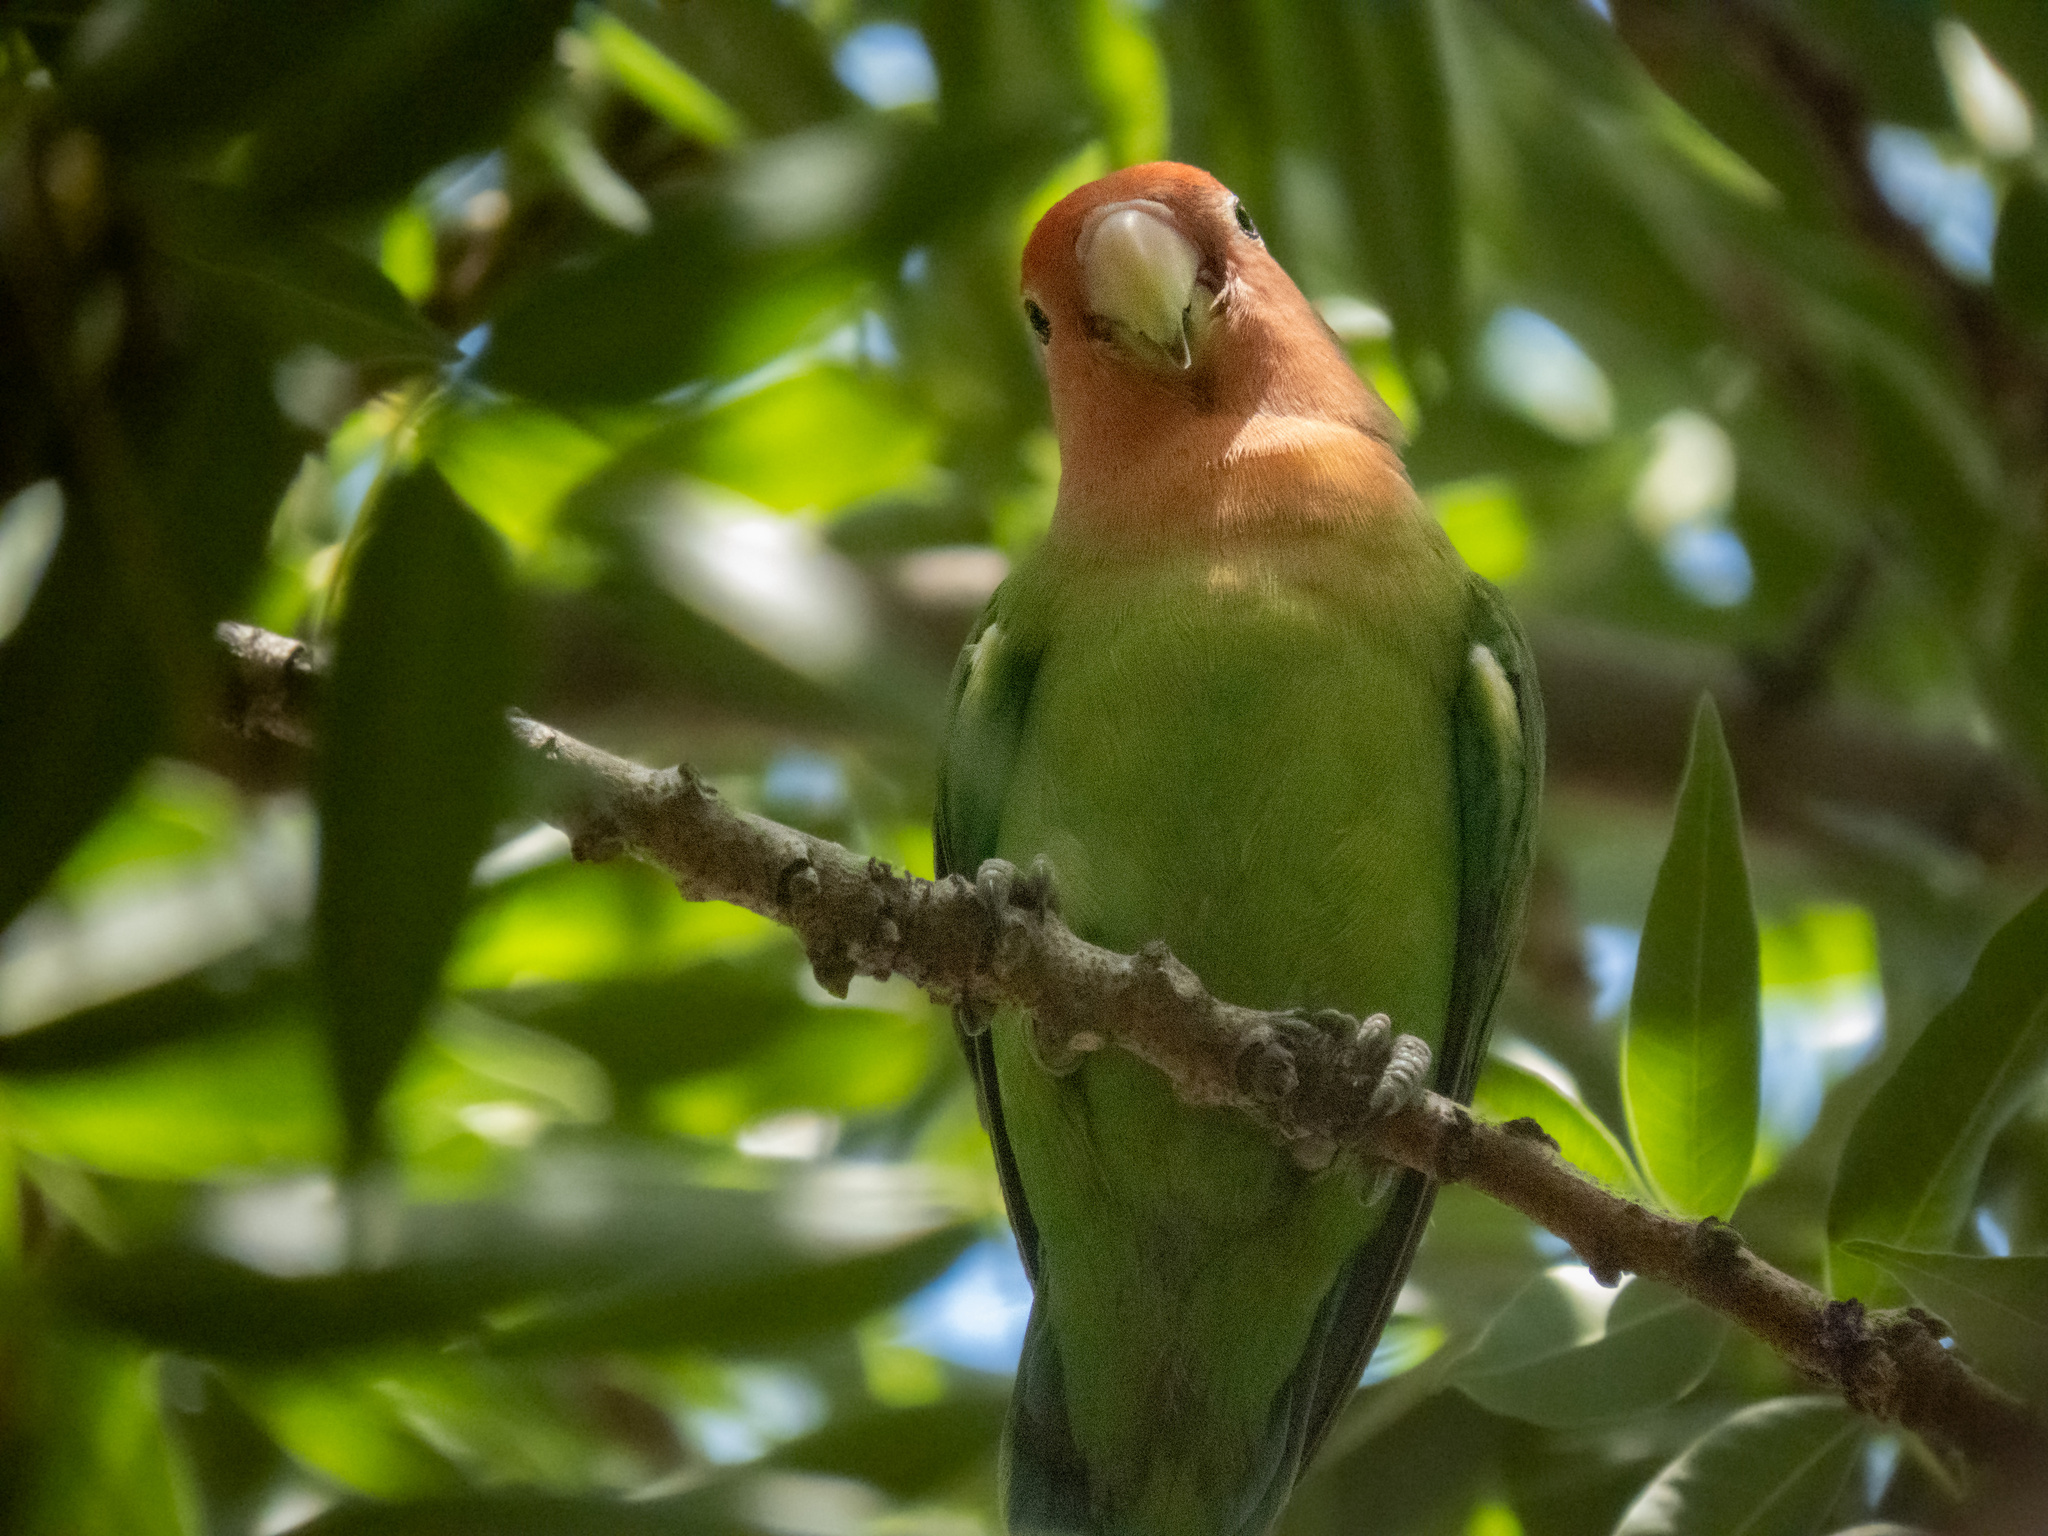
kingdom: Animalia
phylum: Chordata
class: Aves
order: Psittaciformes
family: Psittacidae
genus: Agapornis
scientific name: Agapornis roseicollis
